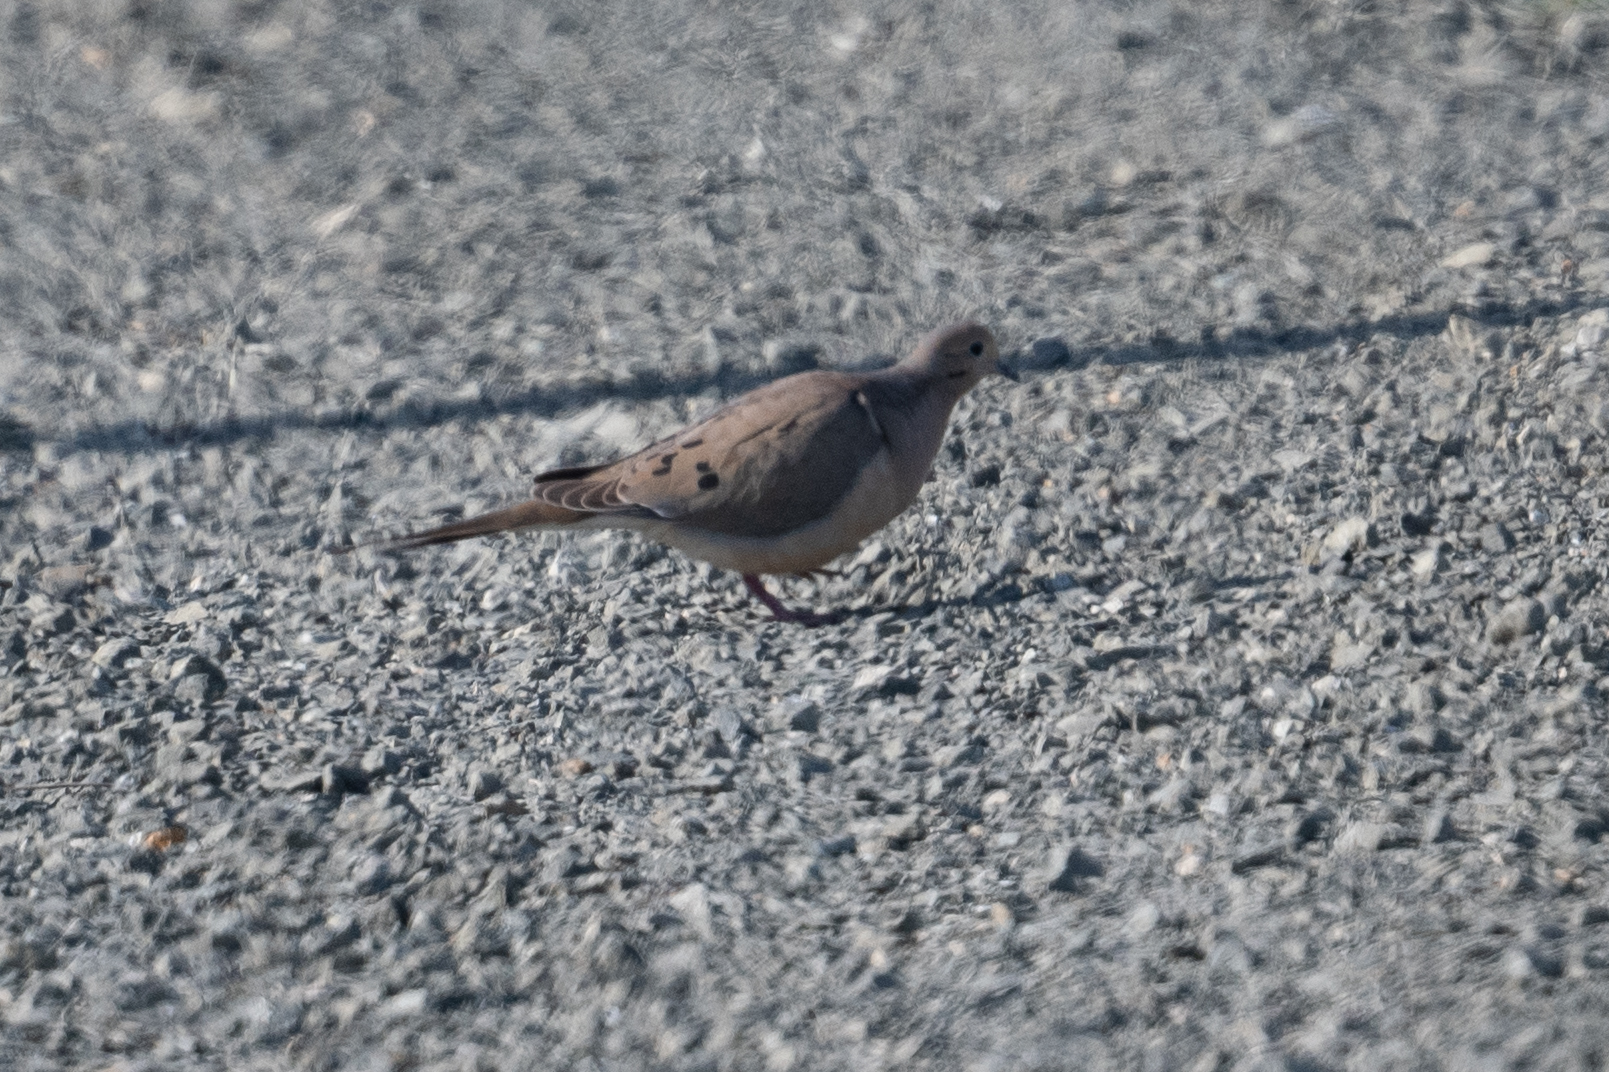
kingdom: Animalia
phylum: Chordata
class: Aves
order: Columbiformes
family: Columbidae
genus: Zenaida
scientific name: Zenaida macroura
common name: Mourning dove
